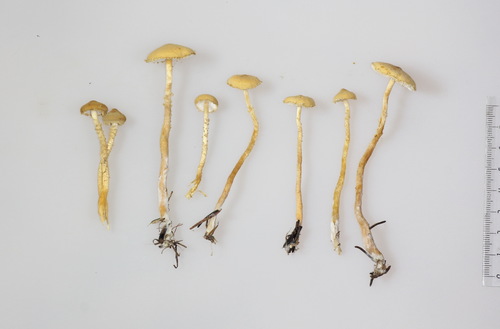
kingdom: Fungi
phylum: Basidiomycota
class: Agaricomycetes
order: Agaricales
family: Tricholomataceae
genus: Cystoderma
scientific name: Cystoderma amianthinum
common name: Earthy powdercap
